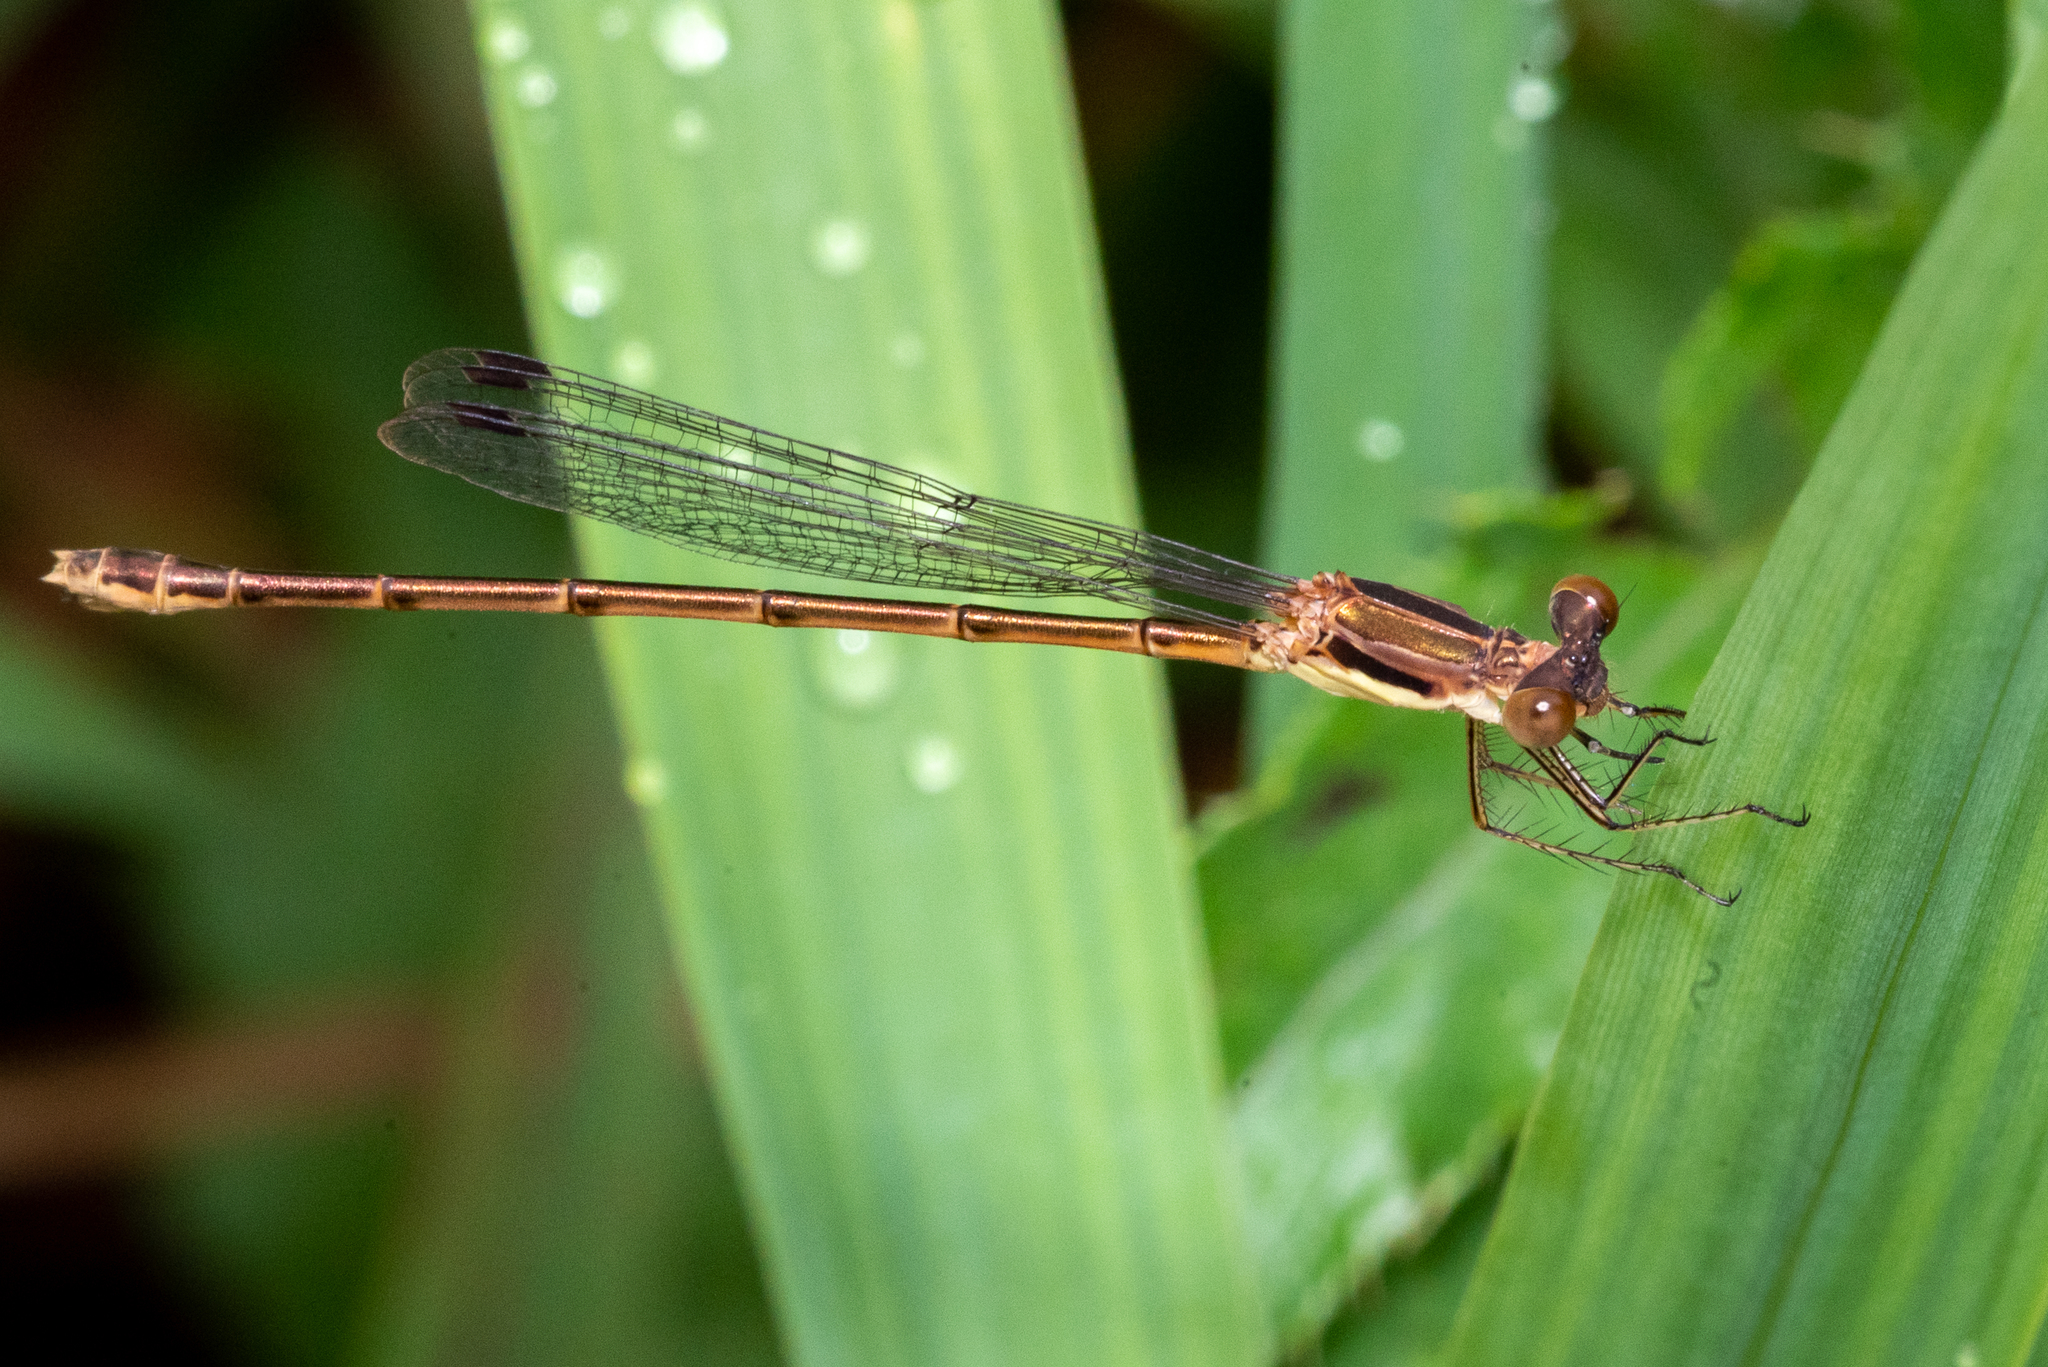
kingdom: Animalia
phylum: Arthropoda
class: Insecta
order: Odonata
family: Lestidae
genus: Lestes
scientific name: Lestes rectangularis
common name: Slender spreadwing
